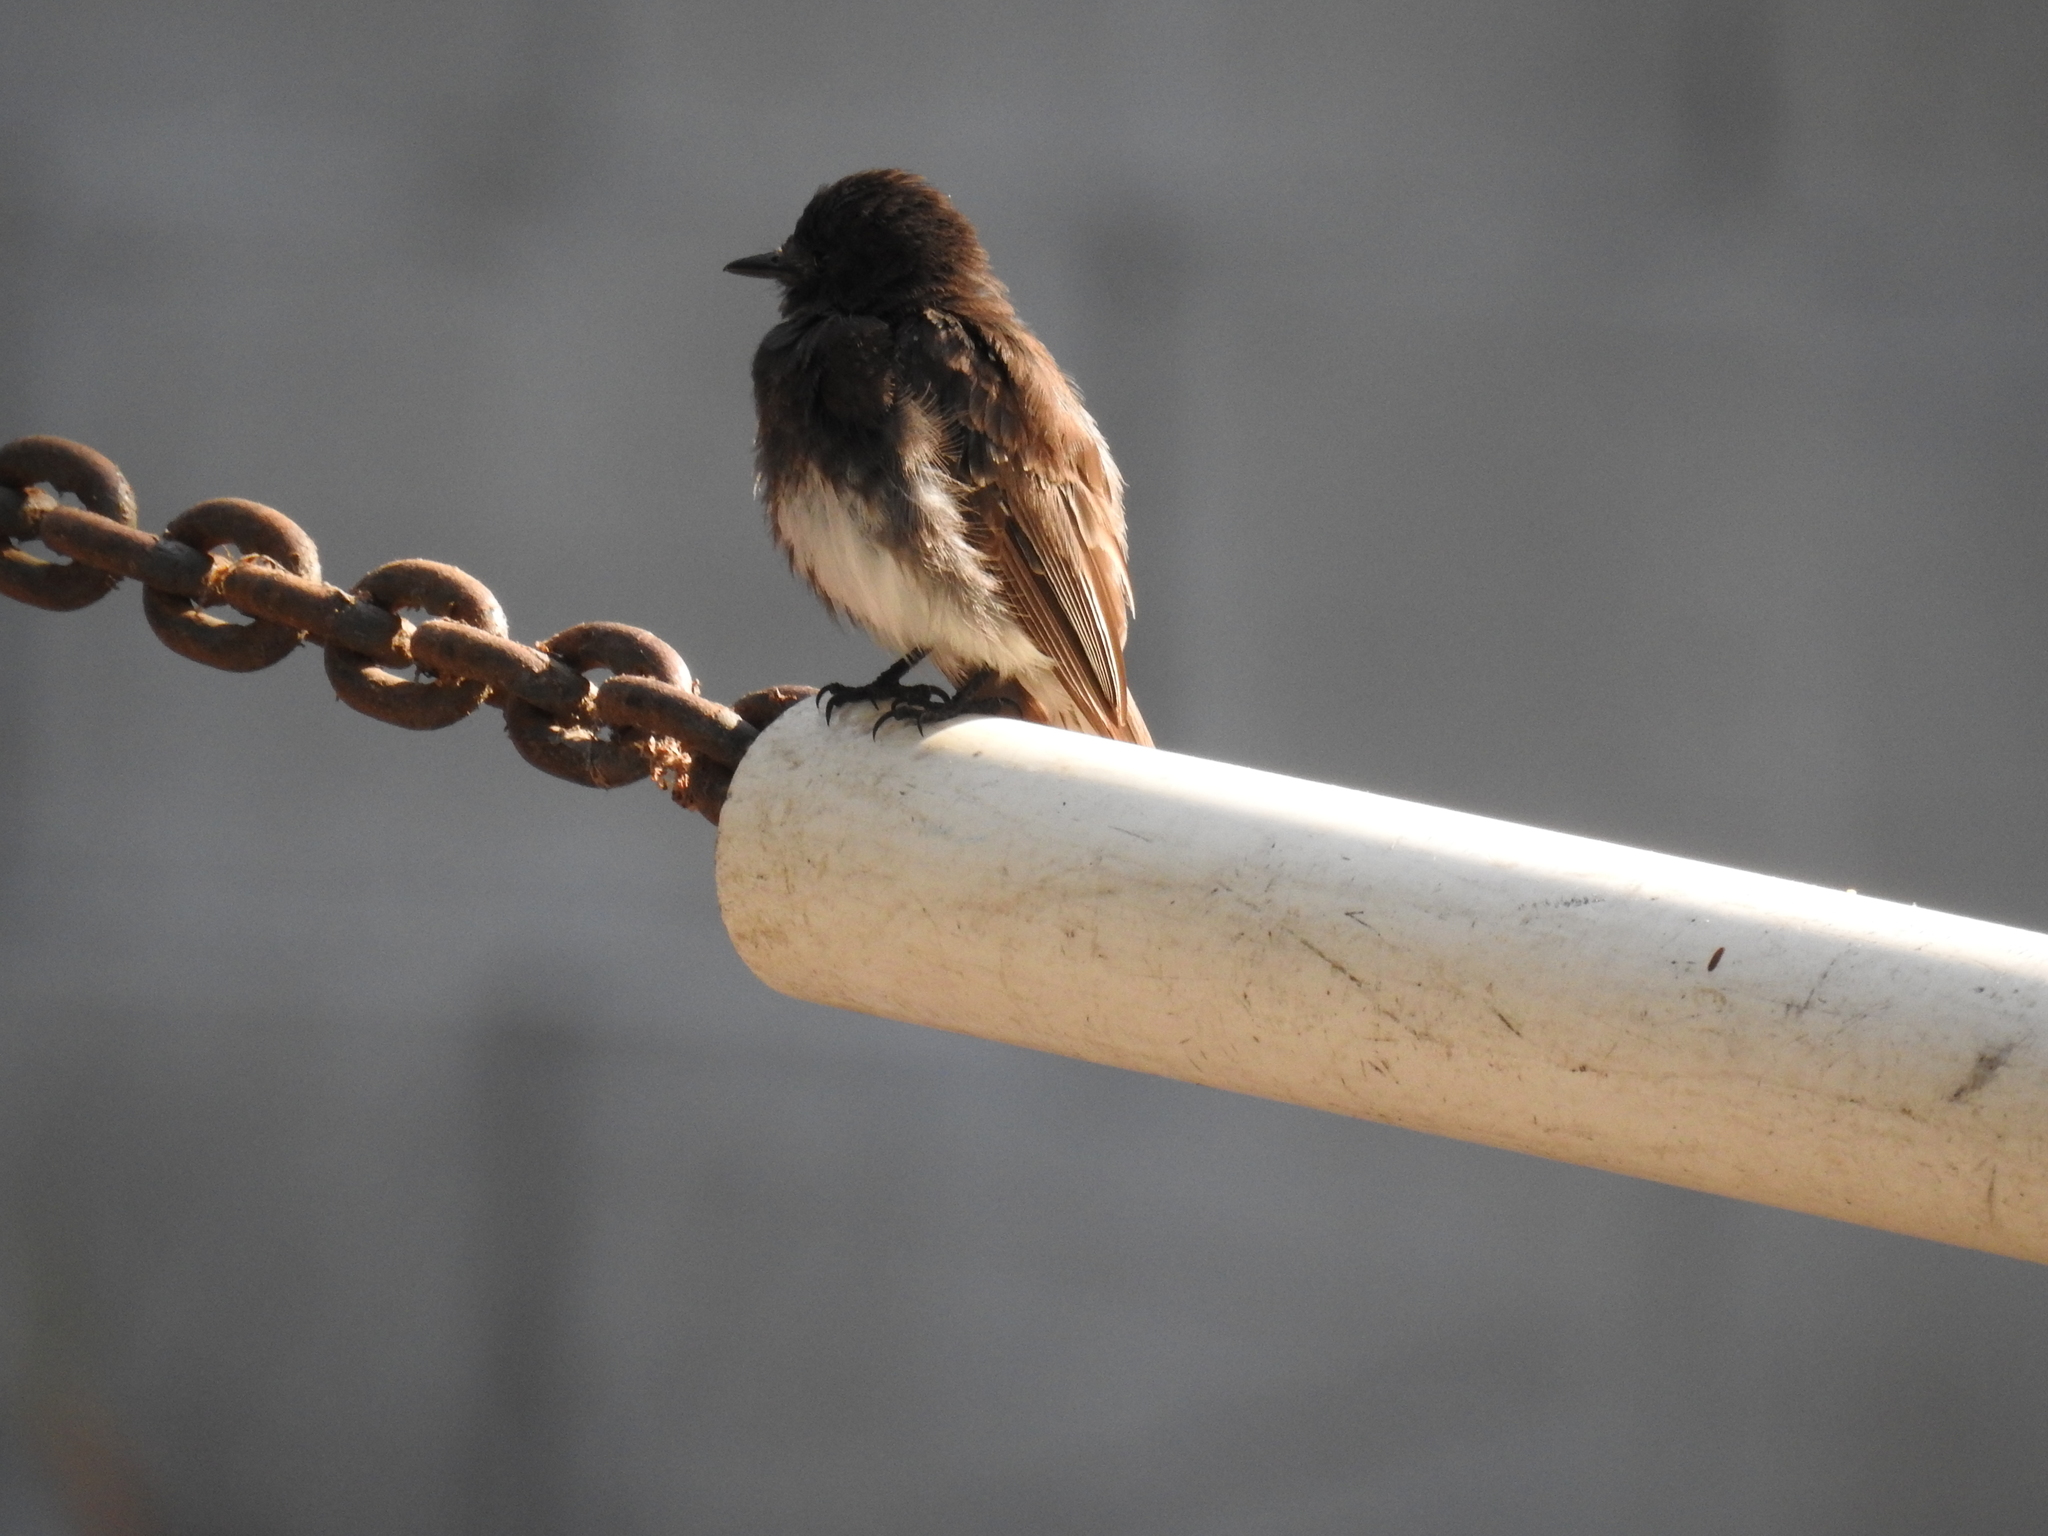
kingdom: Animalia
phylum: Chordata
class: Aves
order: Passeriformes
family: Tyrannidae
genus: Sayornis
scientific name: Sayornis nigricans
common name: Black phoebe
